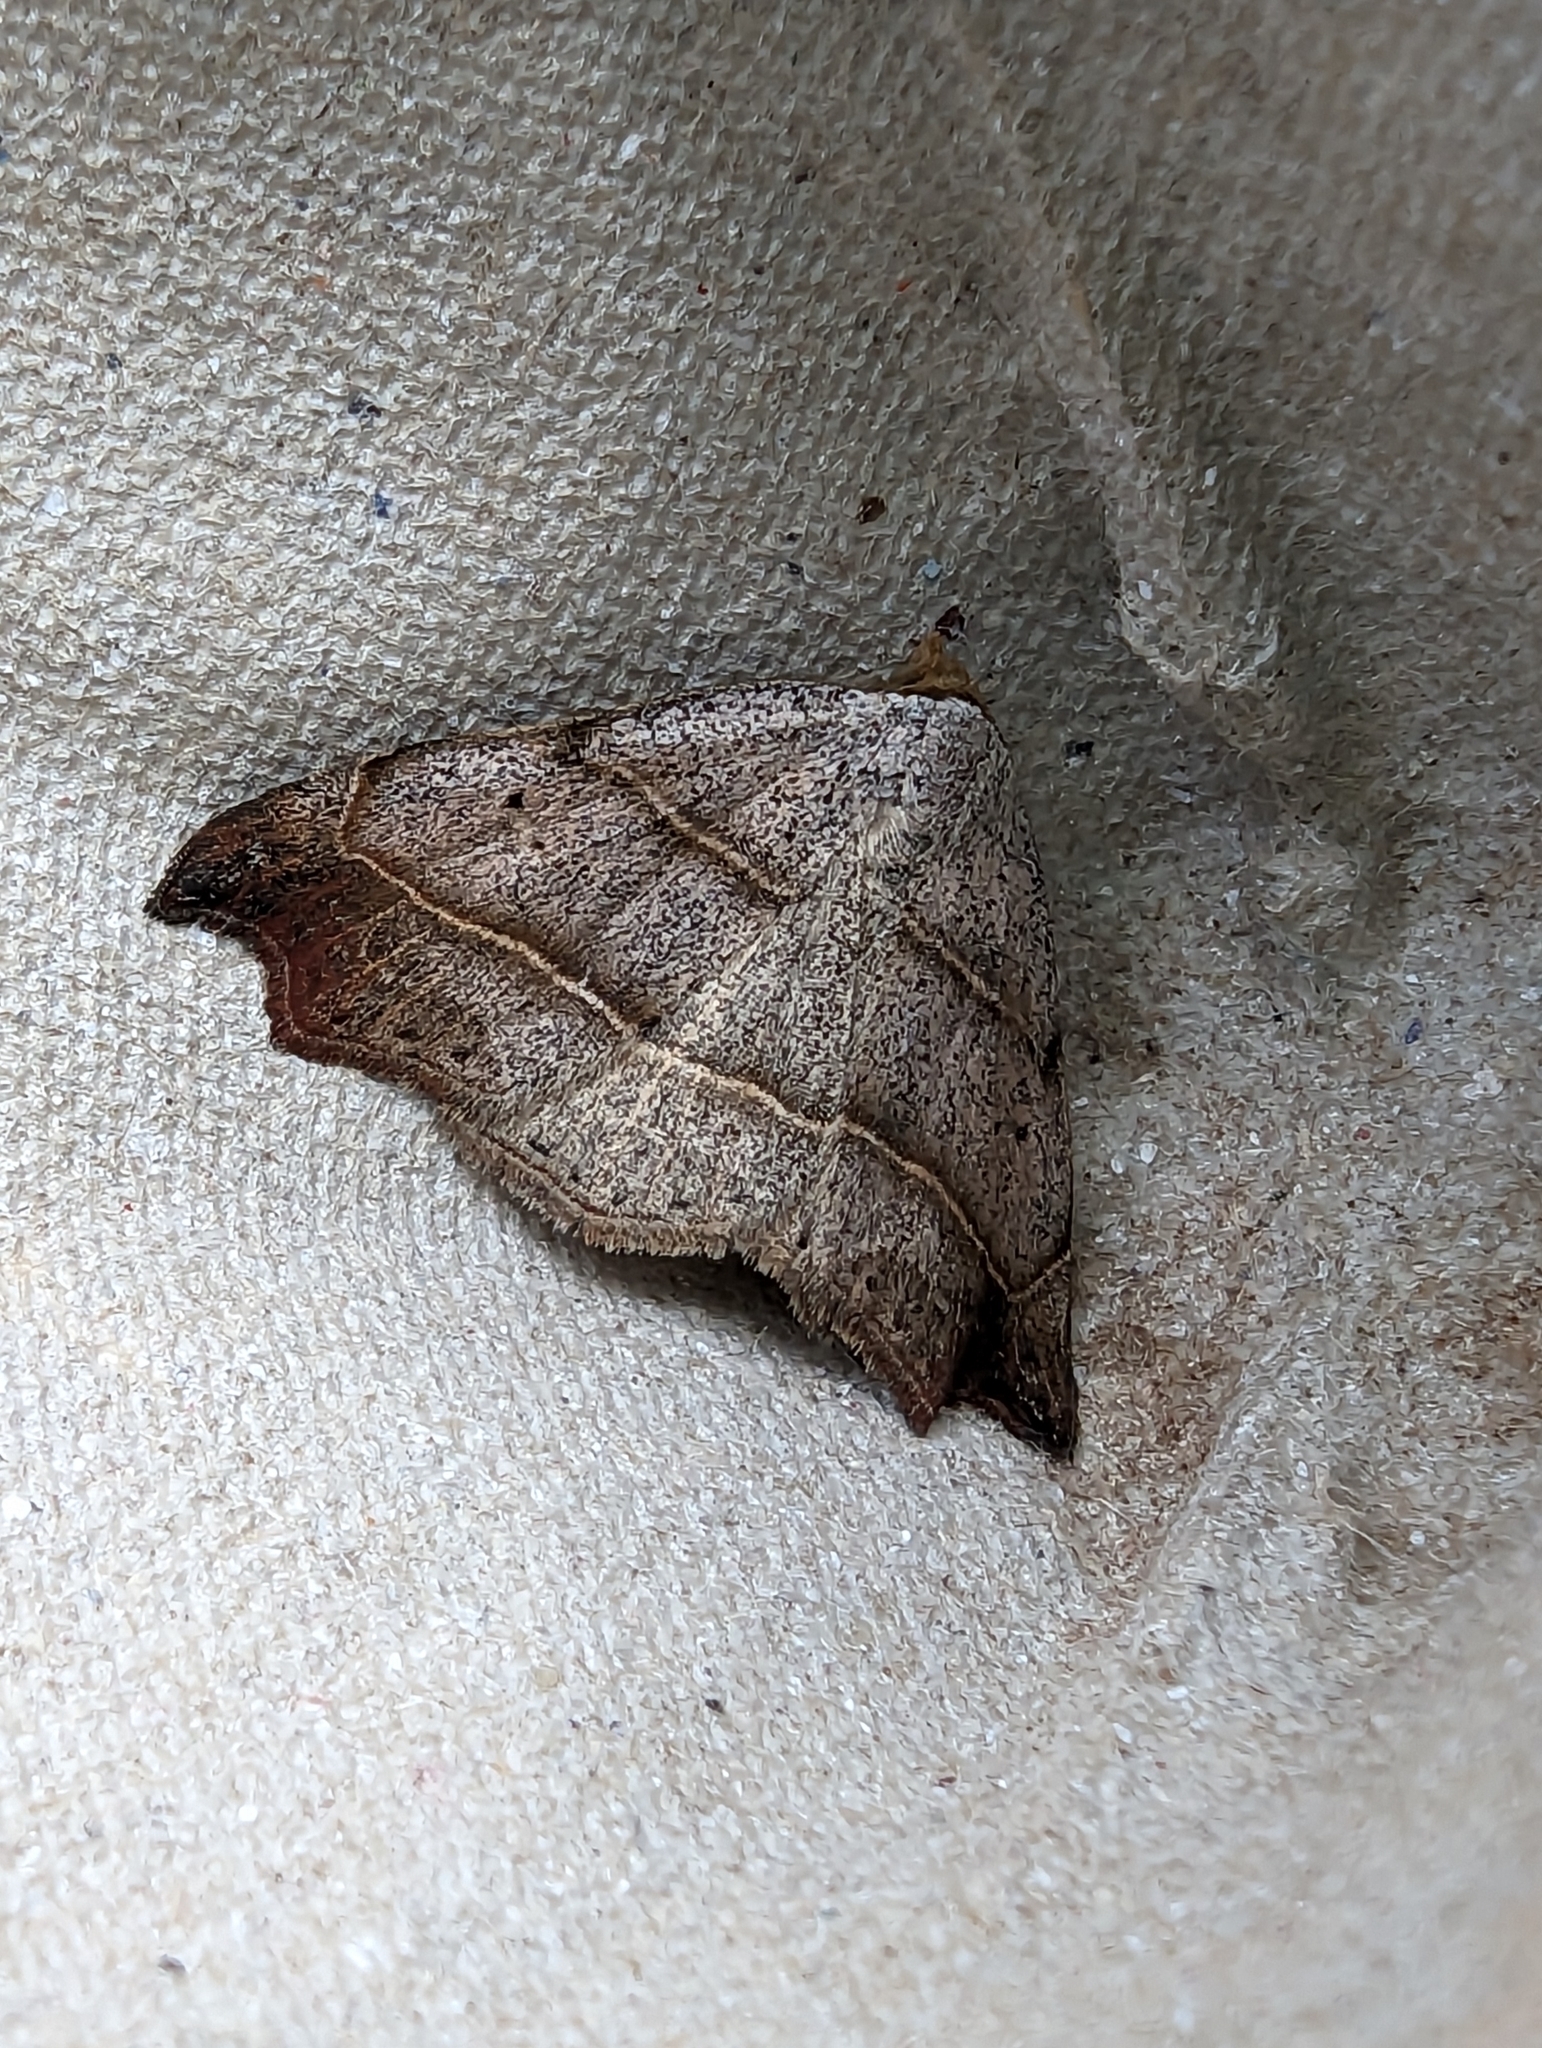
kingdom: Animalia
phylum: Arthropoda
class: Insecta
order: Lepidoptera
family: Erebidae
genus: Laspeyria
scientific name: Laspeyria flexula
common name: Beautiful hook-tip
